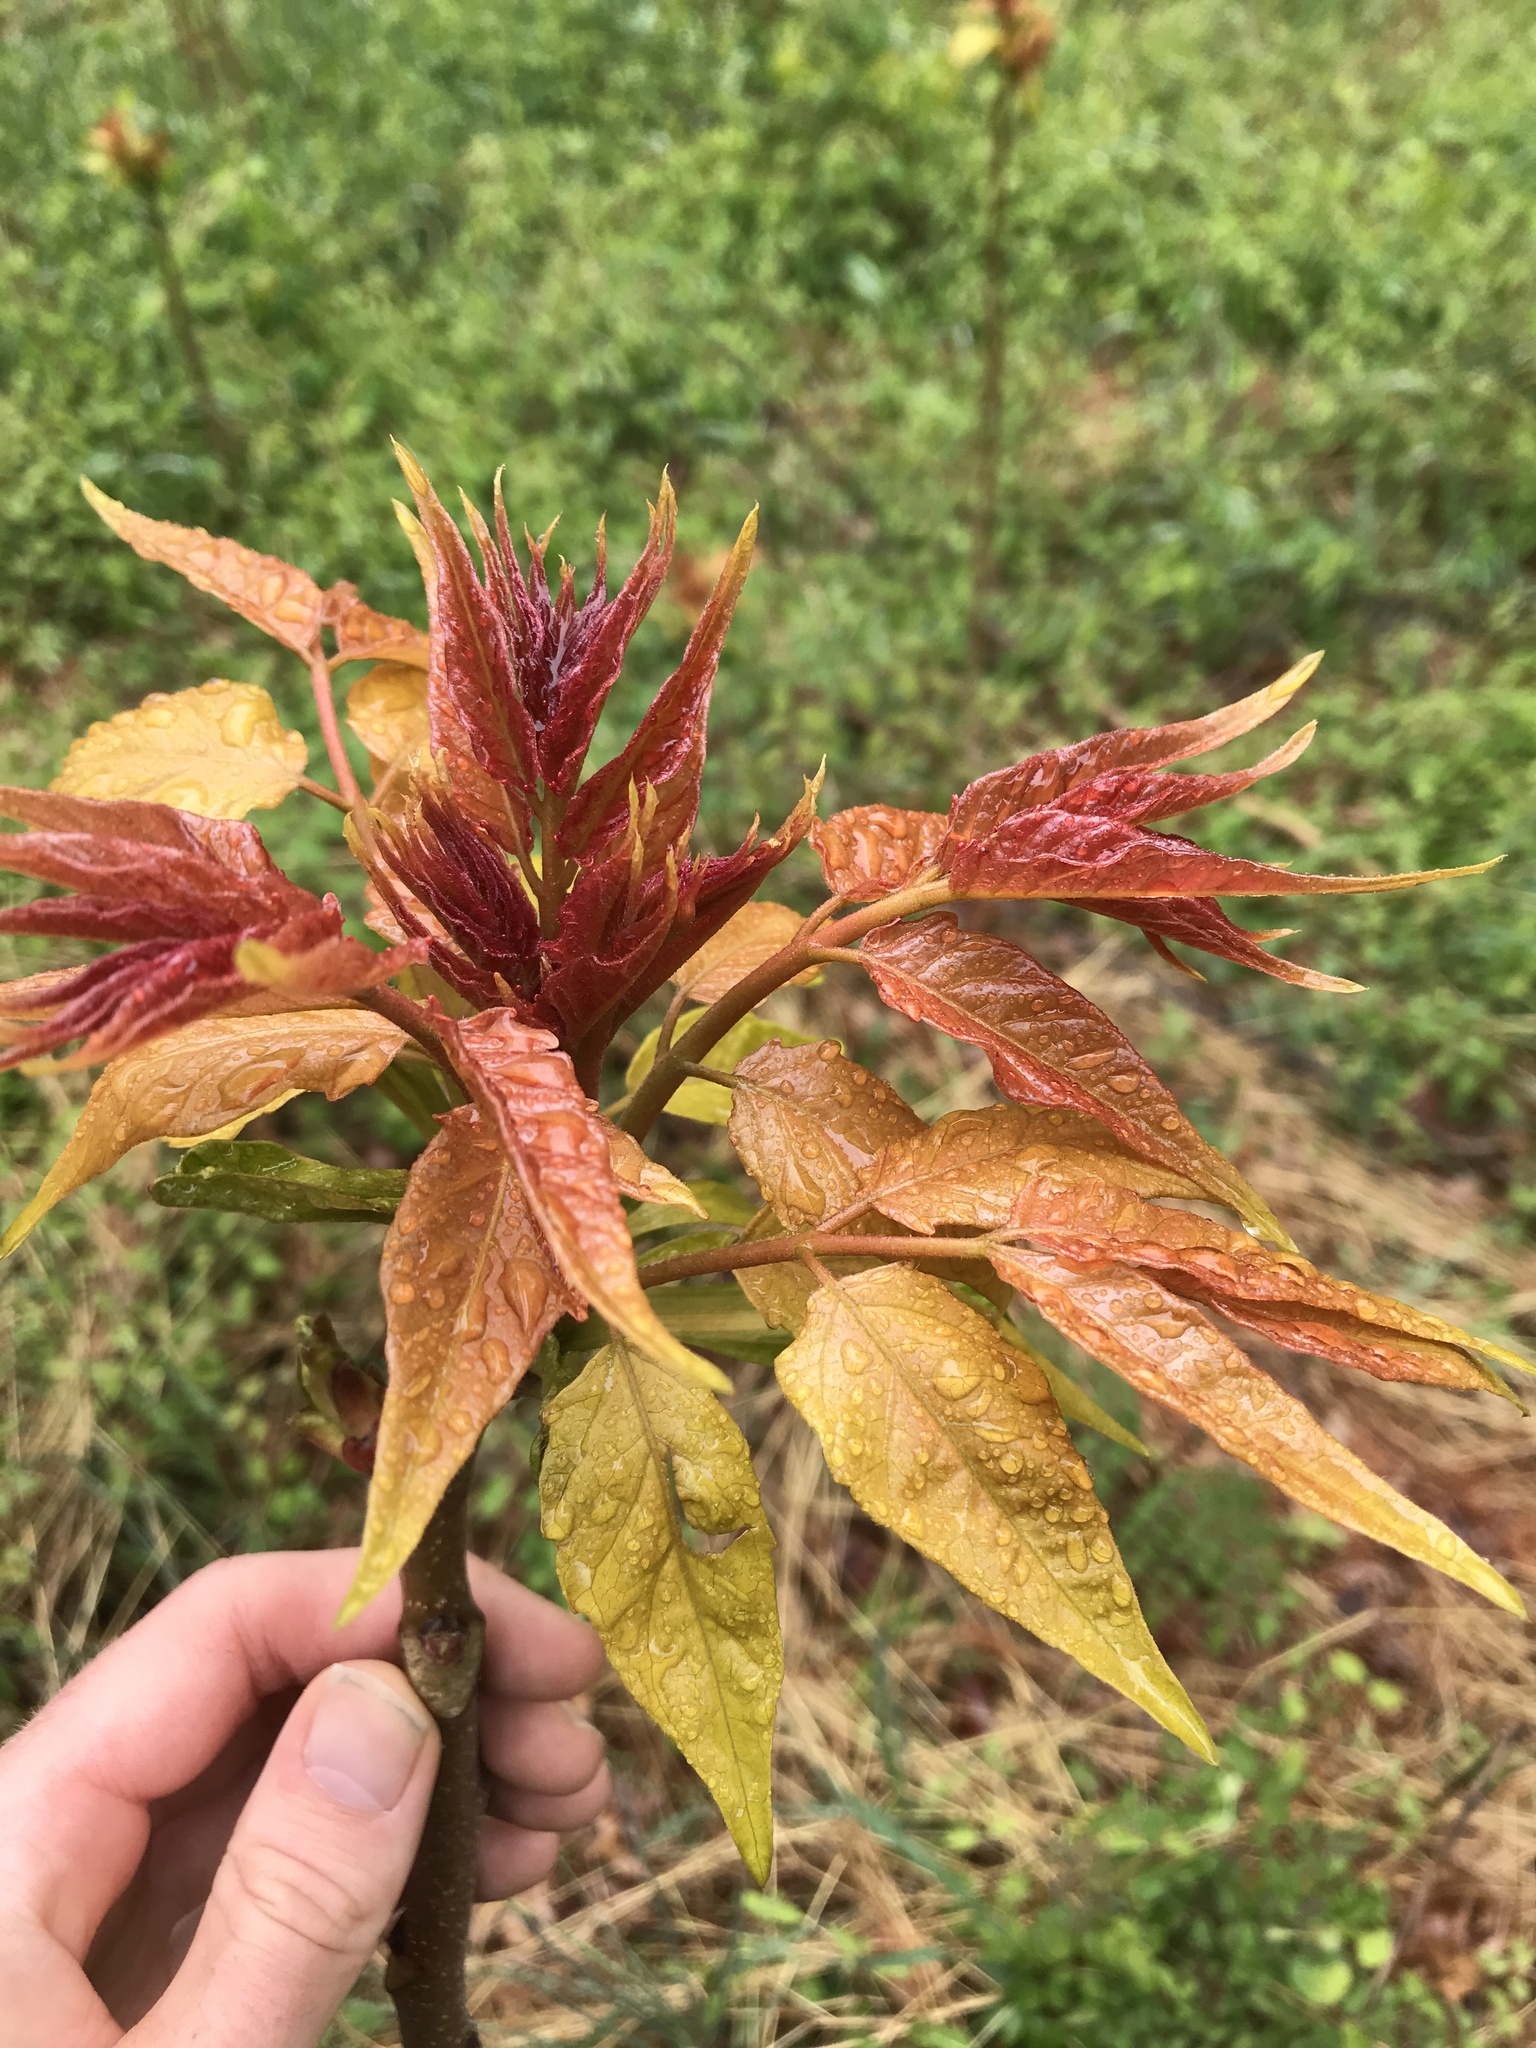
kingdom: Plantae
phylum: Tracheophyta
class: Magnoliopsida
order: Sapindales
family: Simaroubaceae
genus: Ailanthus
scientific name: Ailanthus altissima
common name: Tree-of-heaven
